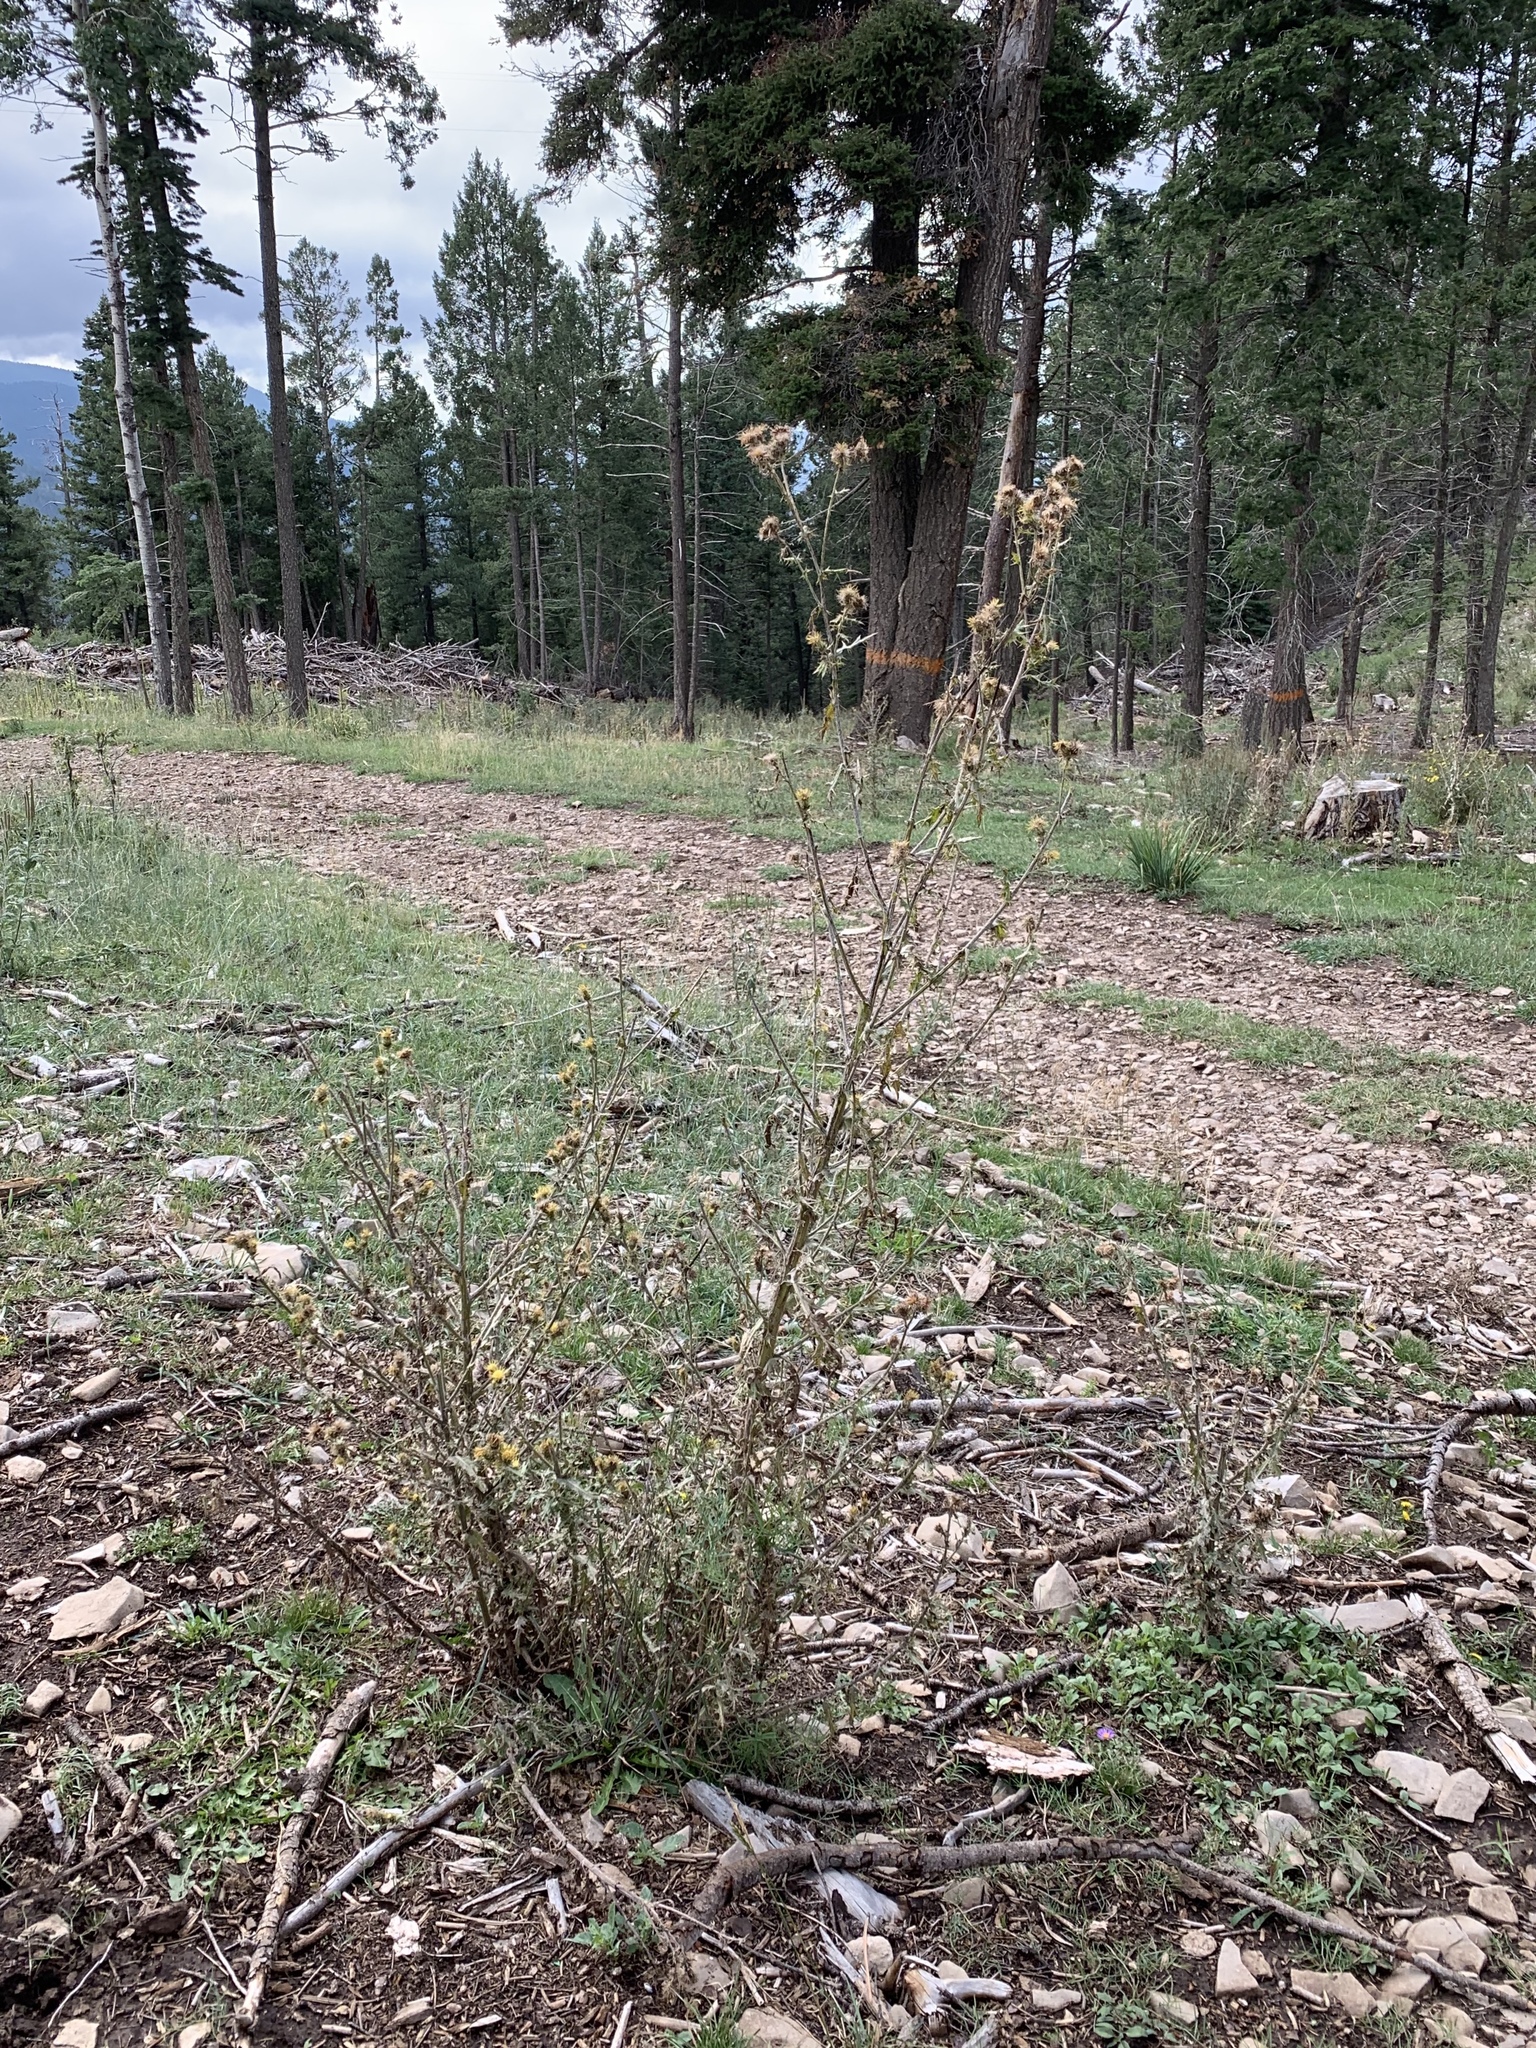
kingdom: Plantae
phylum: Tracheophyta
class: Magnoliopsida
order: Asterales
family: Asteraceae
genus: Cirsium
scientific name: Cirsium parryi
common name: Parry's thistle
